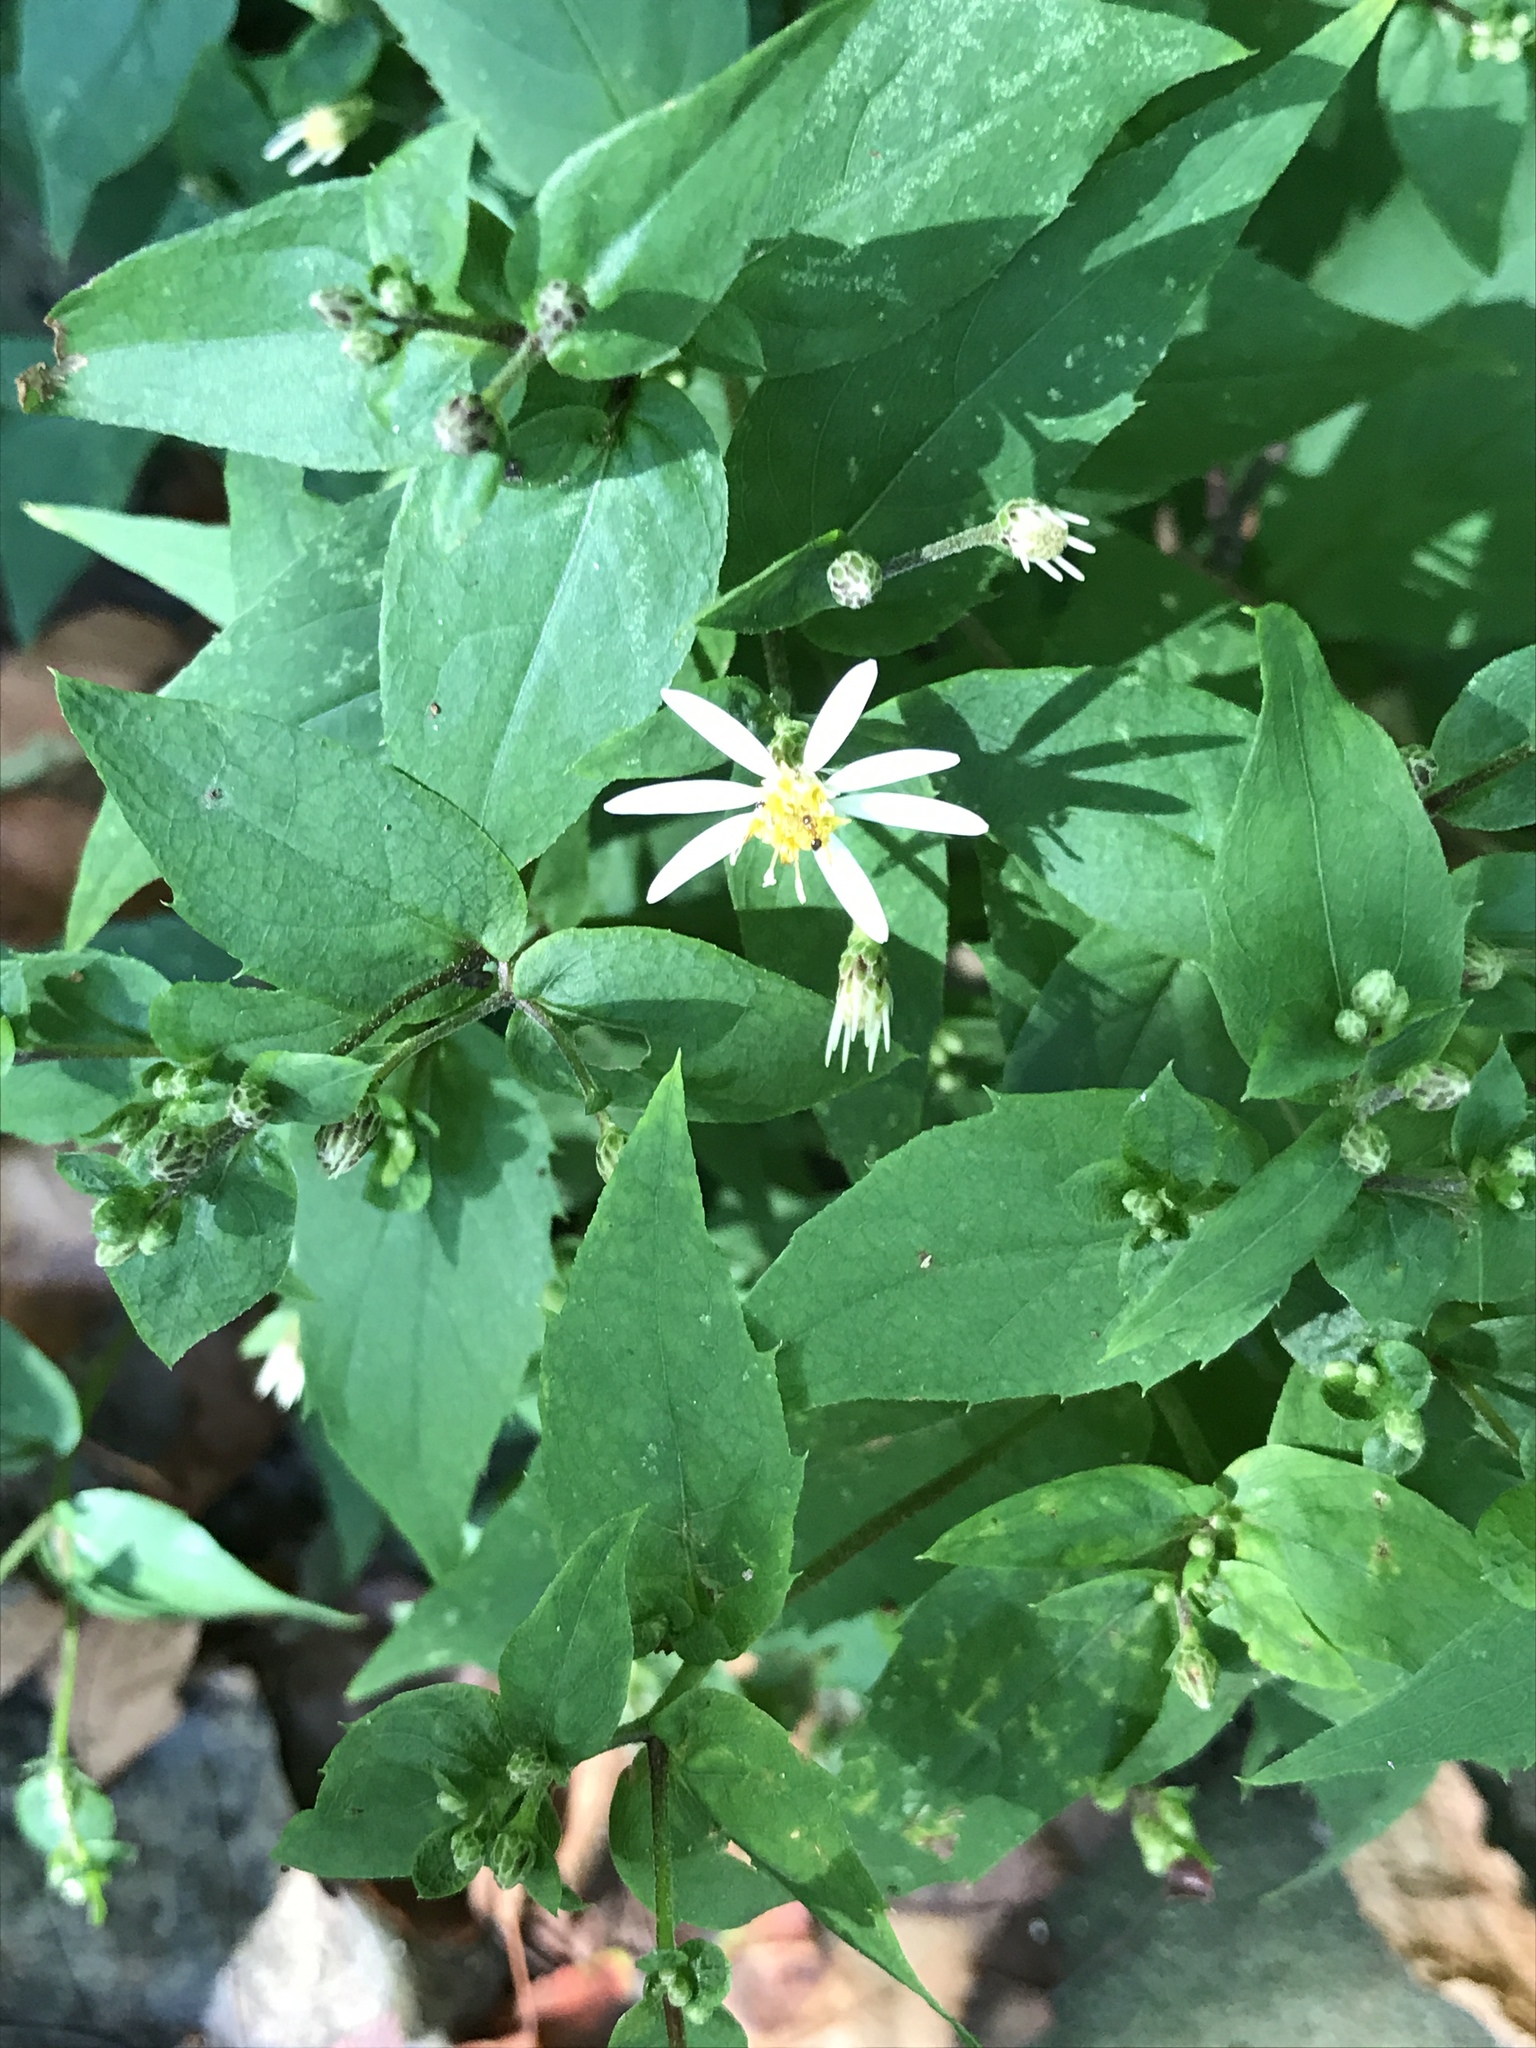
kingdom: Plantae
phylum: Tracheophyta
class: Magnoliopsida
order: Asterales
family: Asteraceae
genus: Eurybia
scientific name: Eurybia divaricata
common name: White wood aster
